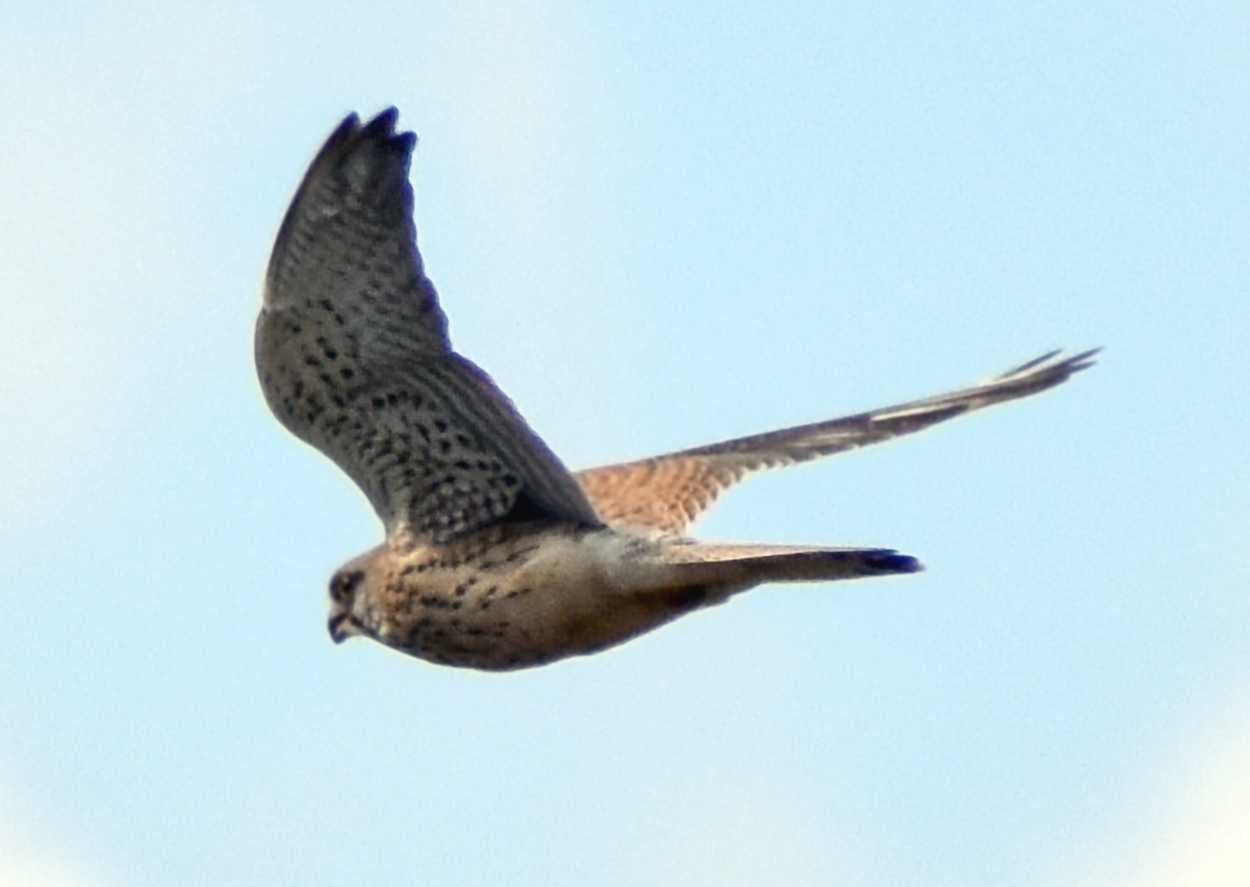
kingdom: Animalia
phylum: Chordata
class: Aves
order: Falconiformes
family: Falconidae
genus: Falco
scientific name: Falco tinnunculus
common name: Common kestrel
